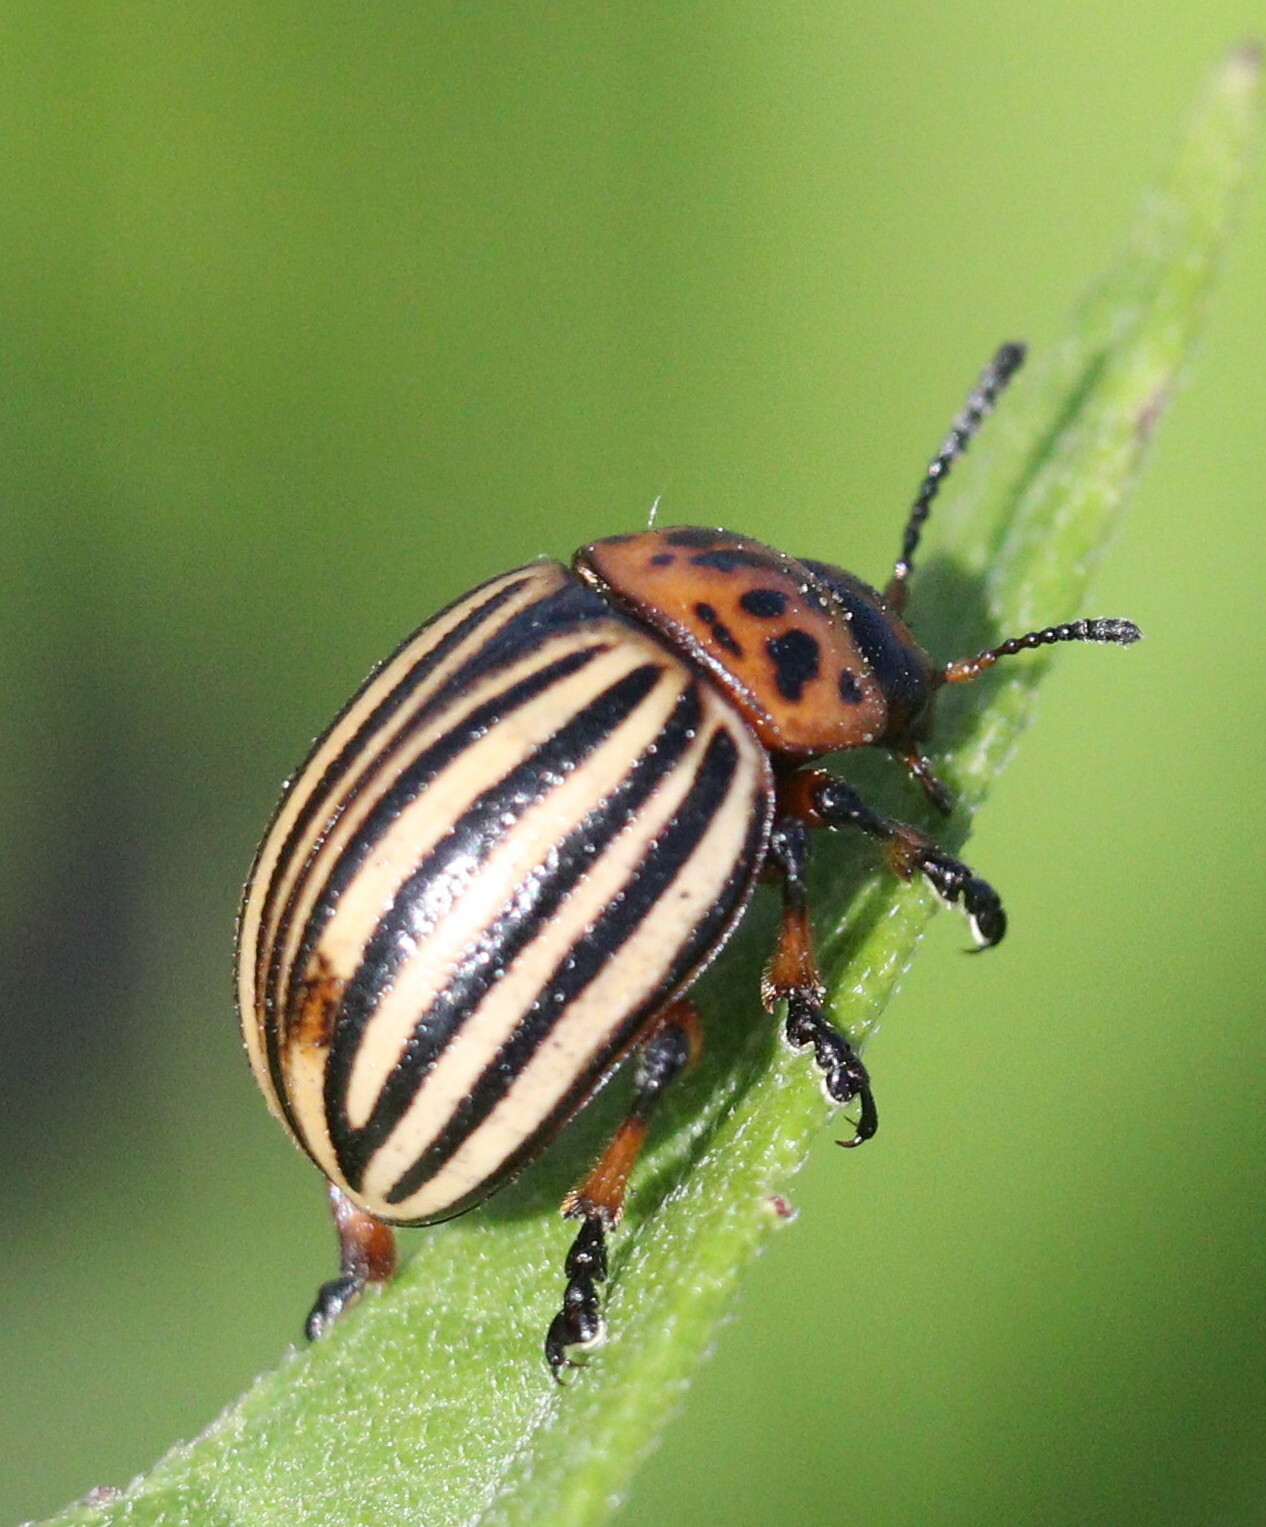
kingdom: Animalia
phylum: Arthropoda
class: Insecta
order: Coleoptera
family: Chrysomelidae
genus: Leptinotarsa
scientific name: Leptinotarsa decemlineata
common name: Colorado potato beetle
